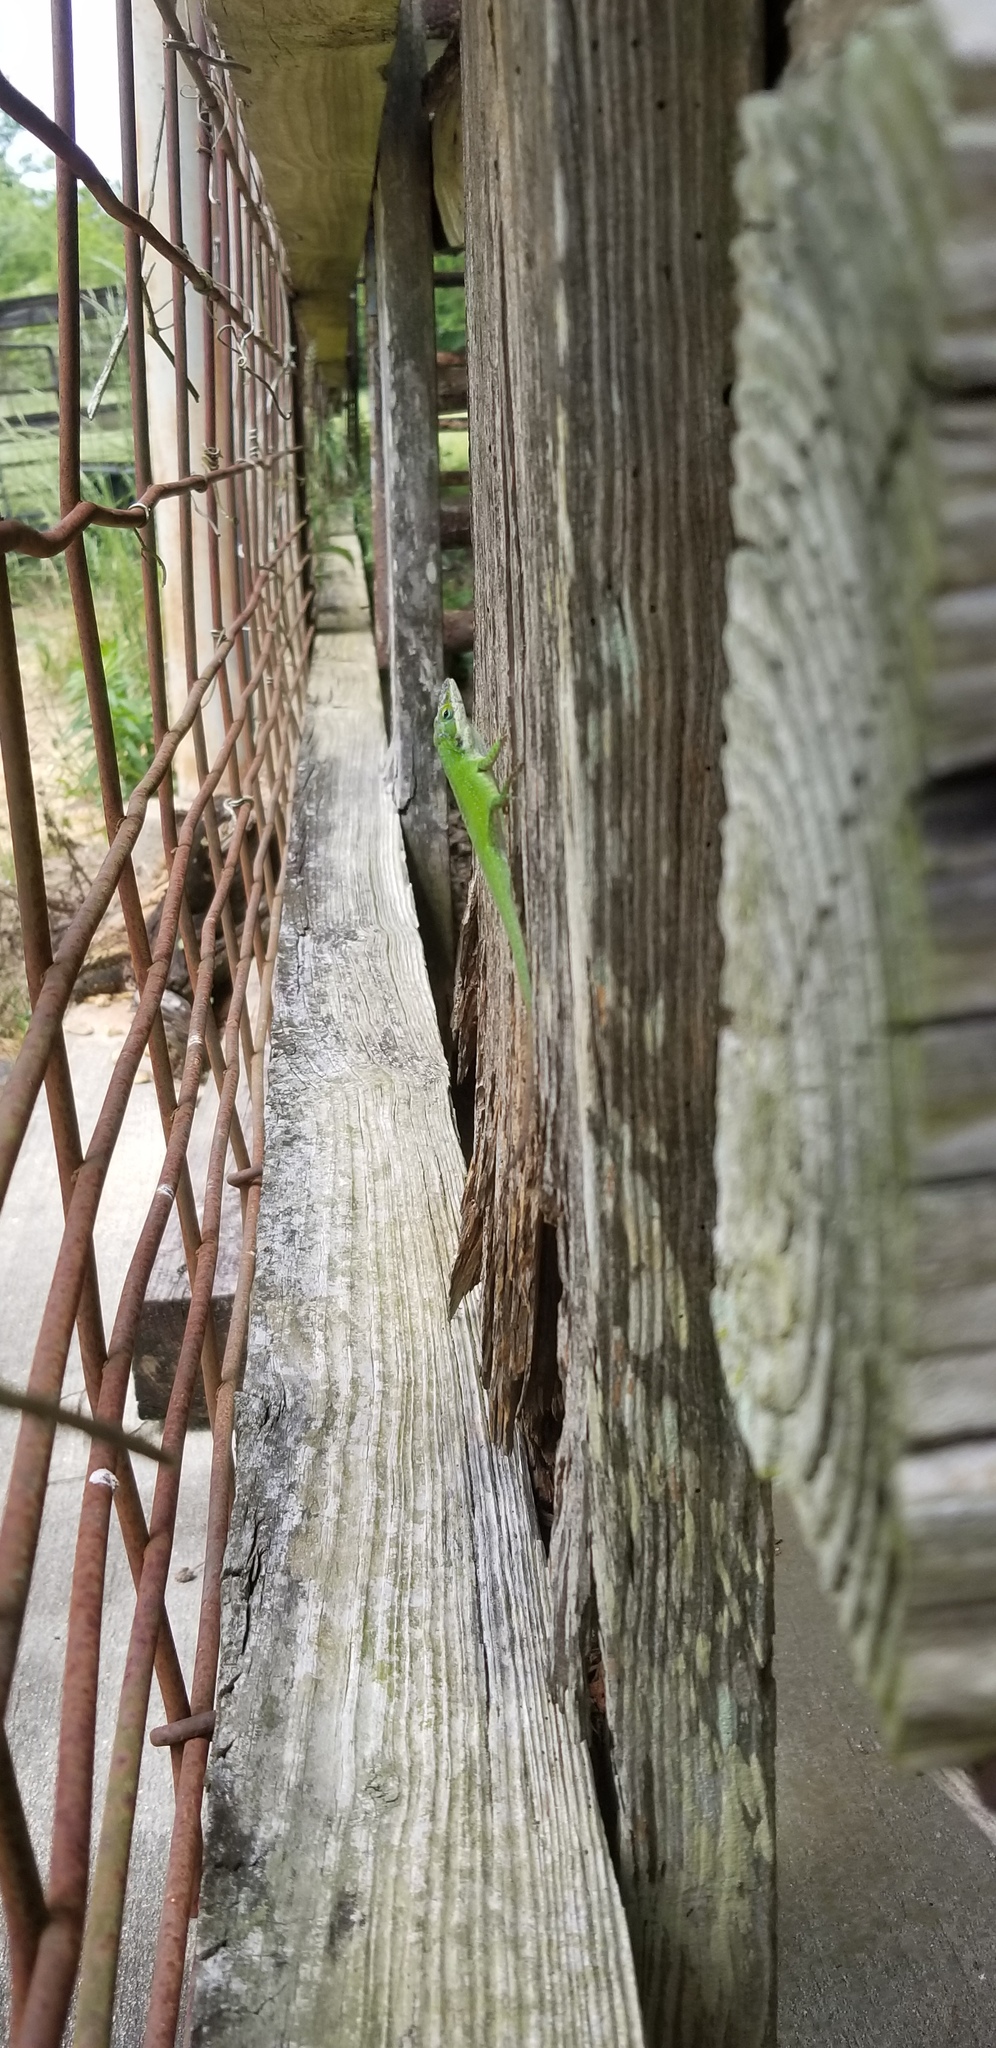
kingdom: Animalia
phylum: Chordata
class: Squamata
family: Dactyloidae
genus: Anolis
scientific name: Anolis carolinensis
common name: Green anole
